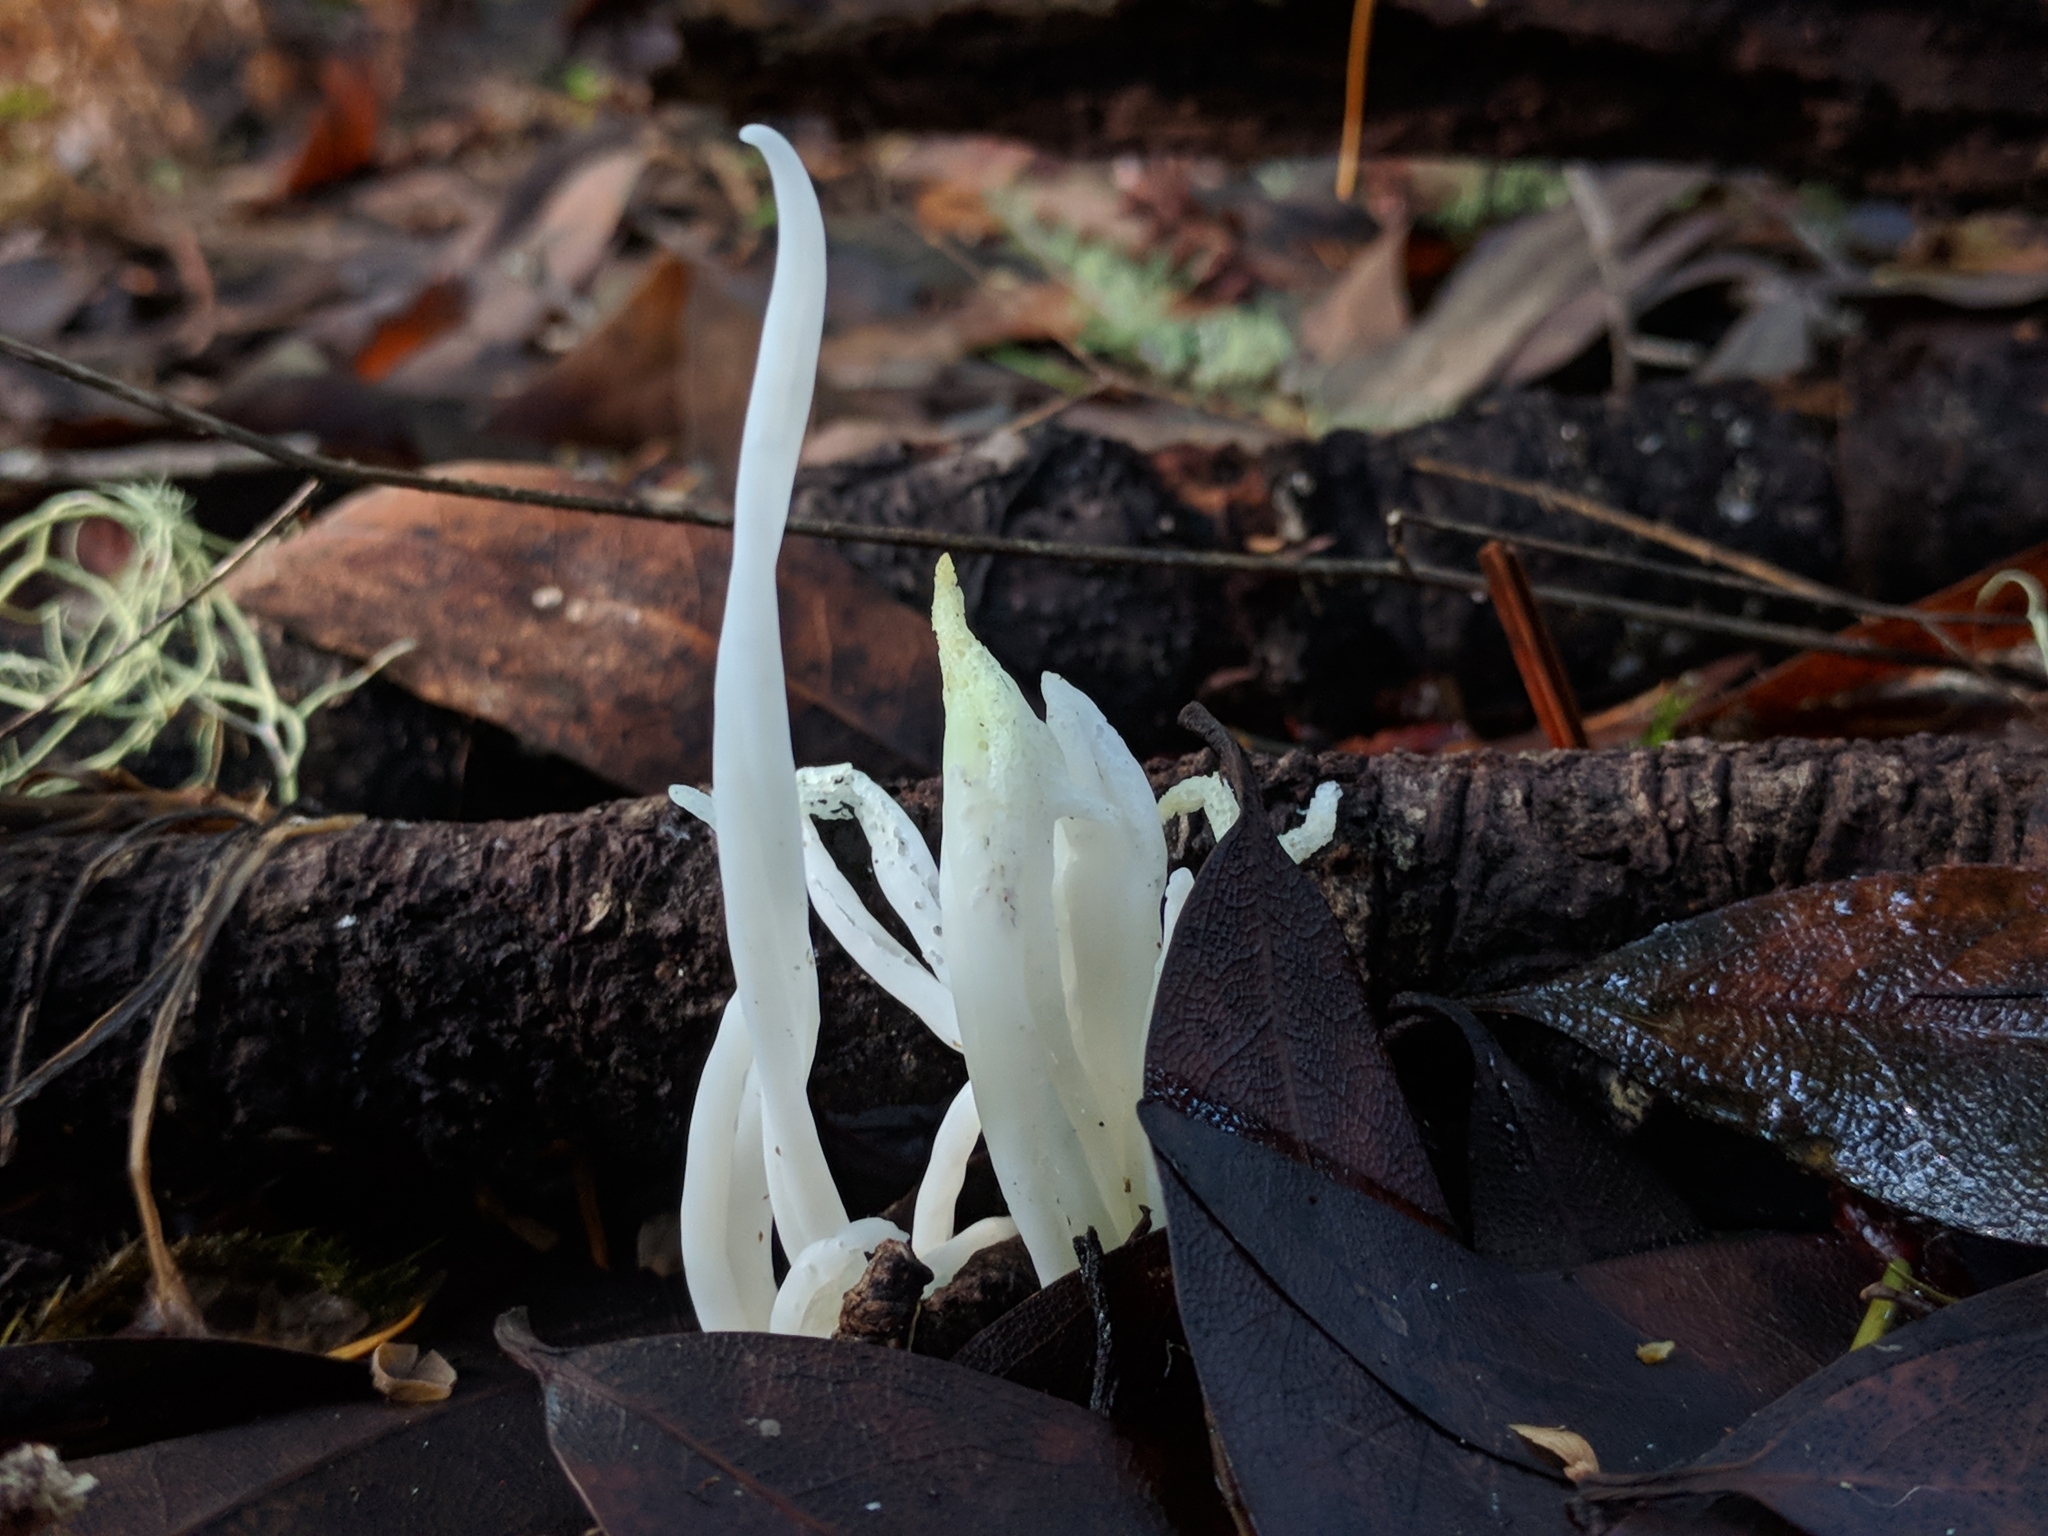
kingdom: Fungi
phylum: Basidiomycota
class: Agaricomycetes
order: Agaricales
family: Clavariaceae
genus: Clavaria
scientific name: Clavaria fragilis
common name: White spindles
